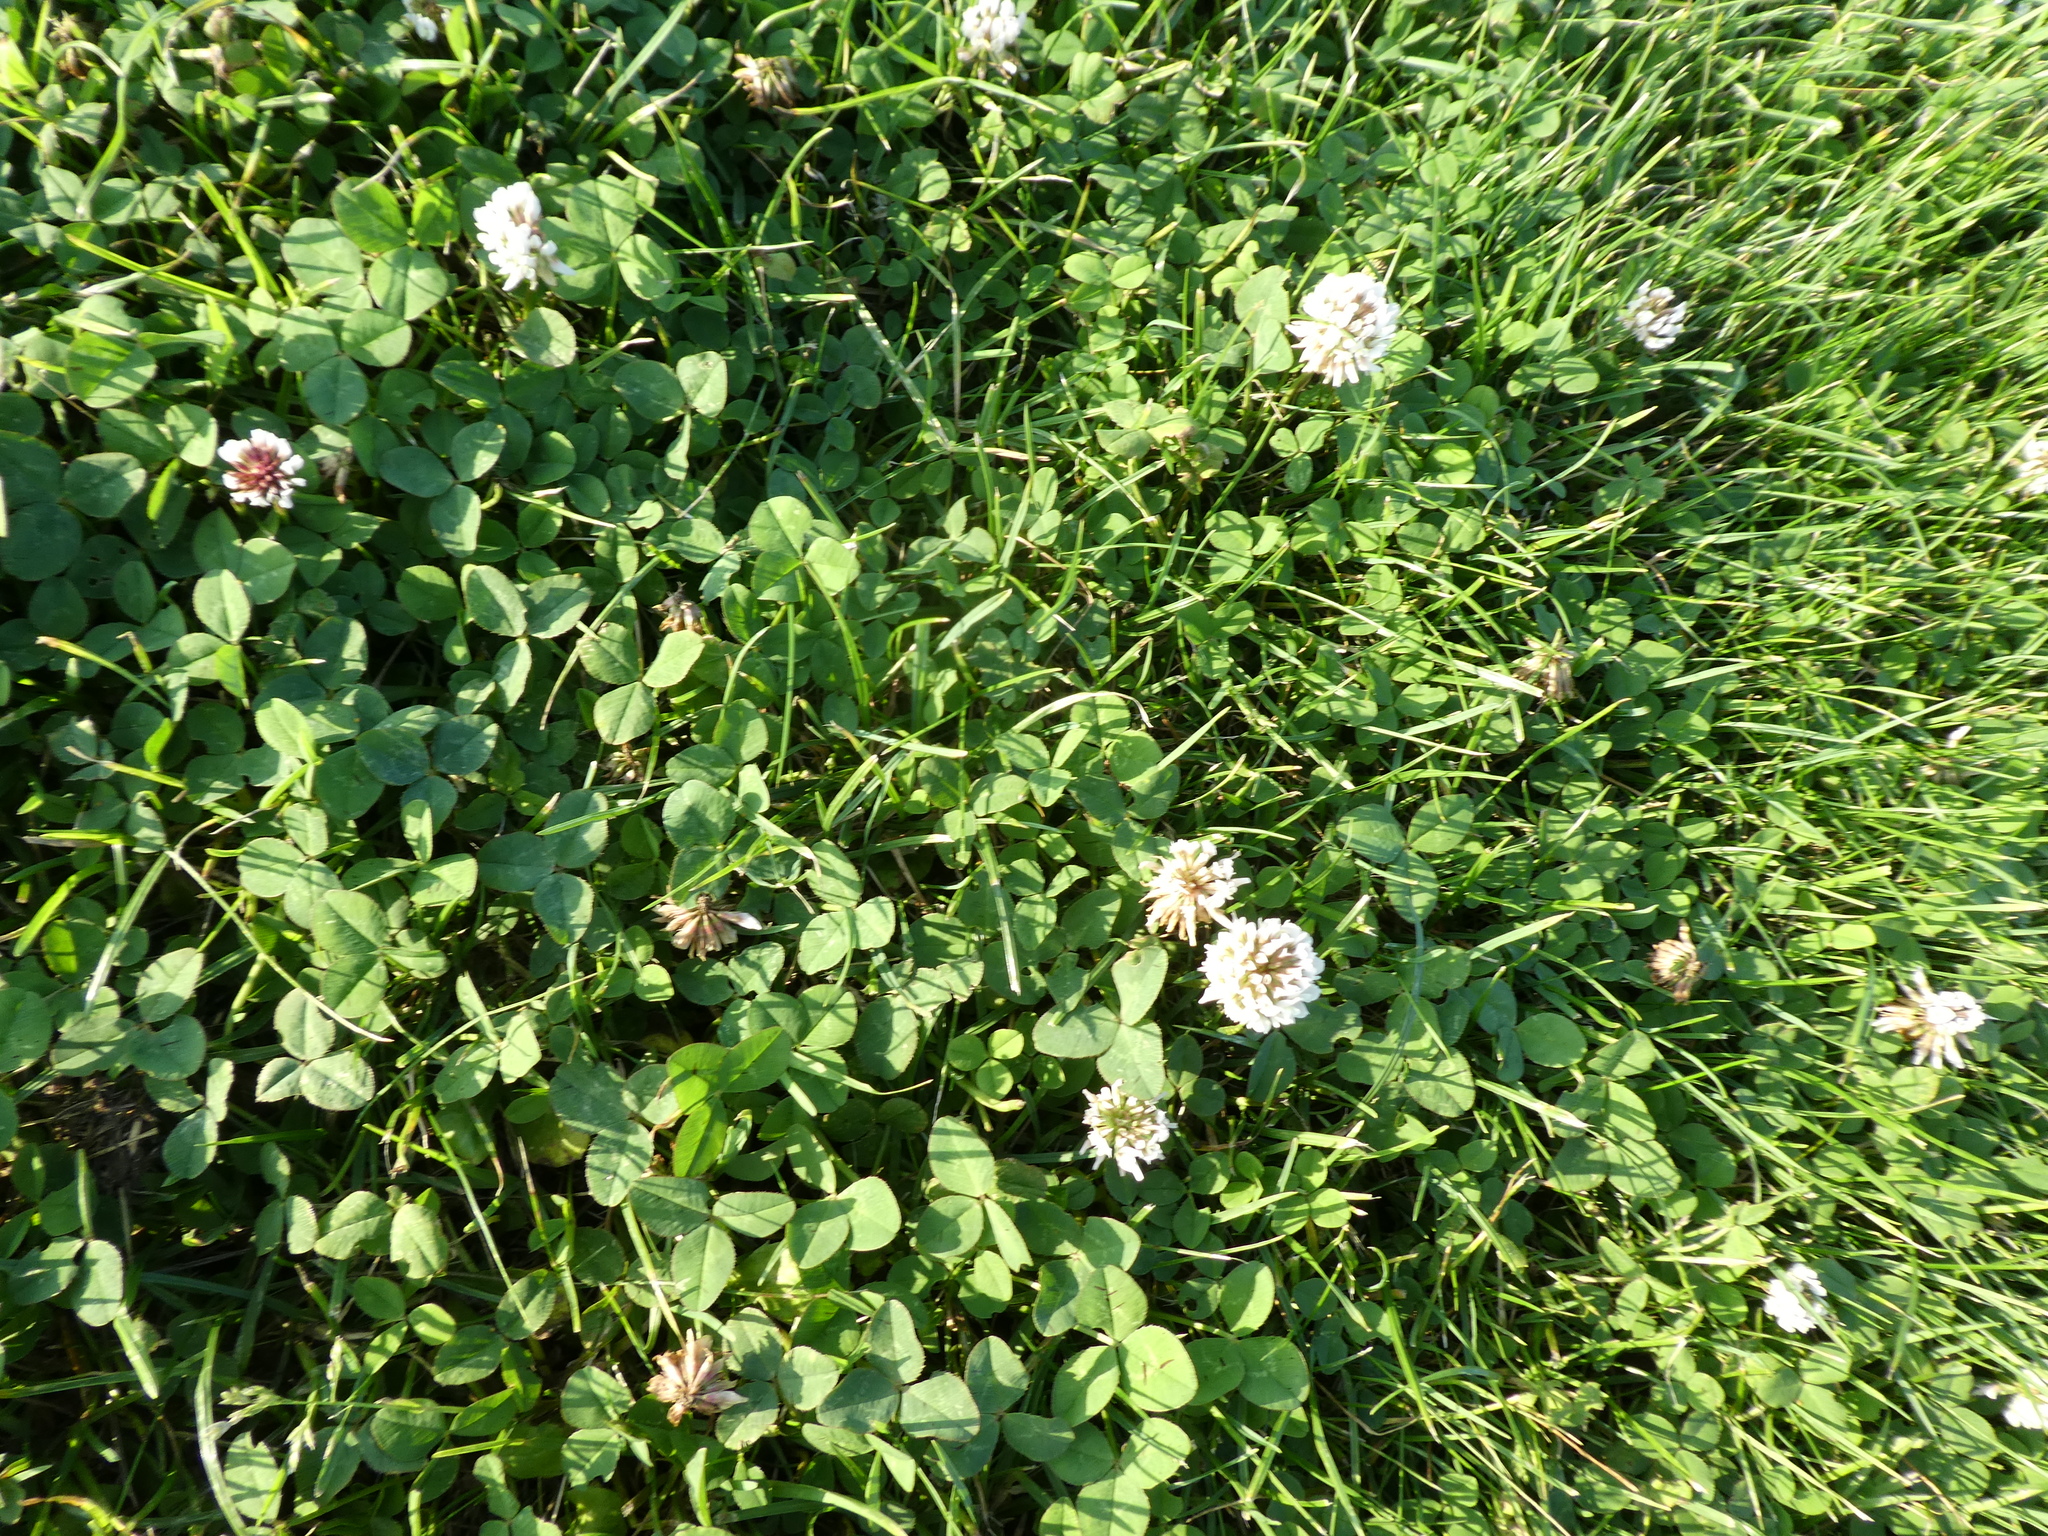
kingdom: Plantae
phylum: Tracheophyta
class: Magnoliopsida
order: Fabales
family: Fabaceae
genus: Trifolium
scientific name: Trifolium repens
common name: White clover
